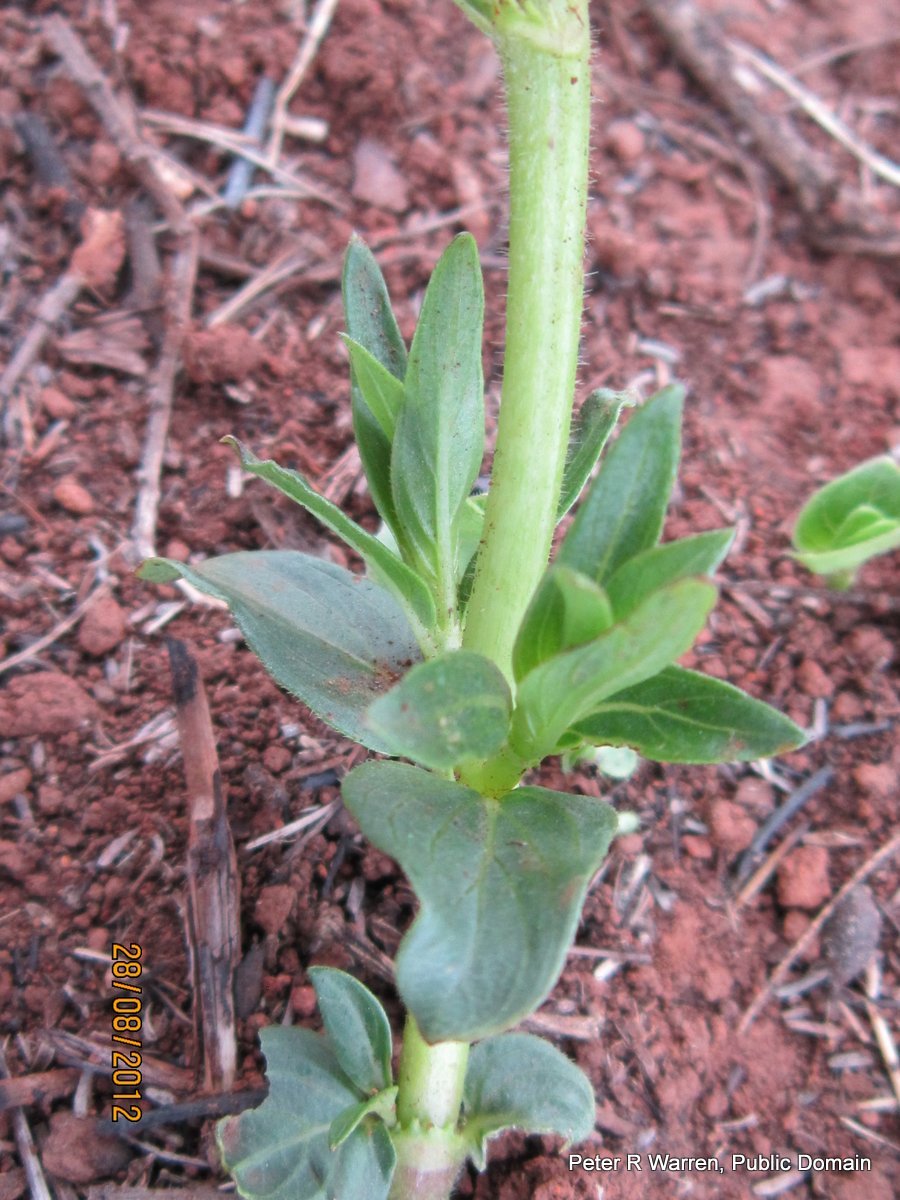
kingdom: Plantae
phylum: Tracheophyta
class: Magnoliopsida
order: Gentianales
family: Rubiaceae
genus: Pentanisia
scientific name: Pentanisia prunelloides
